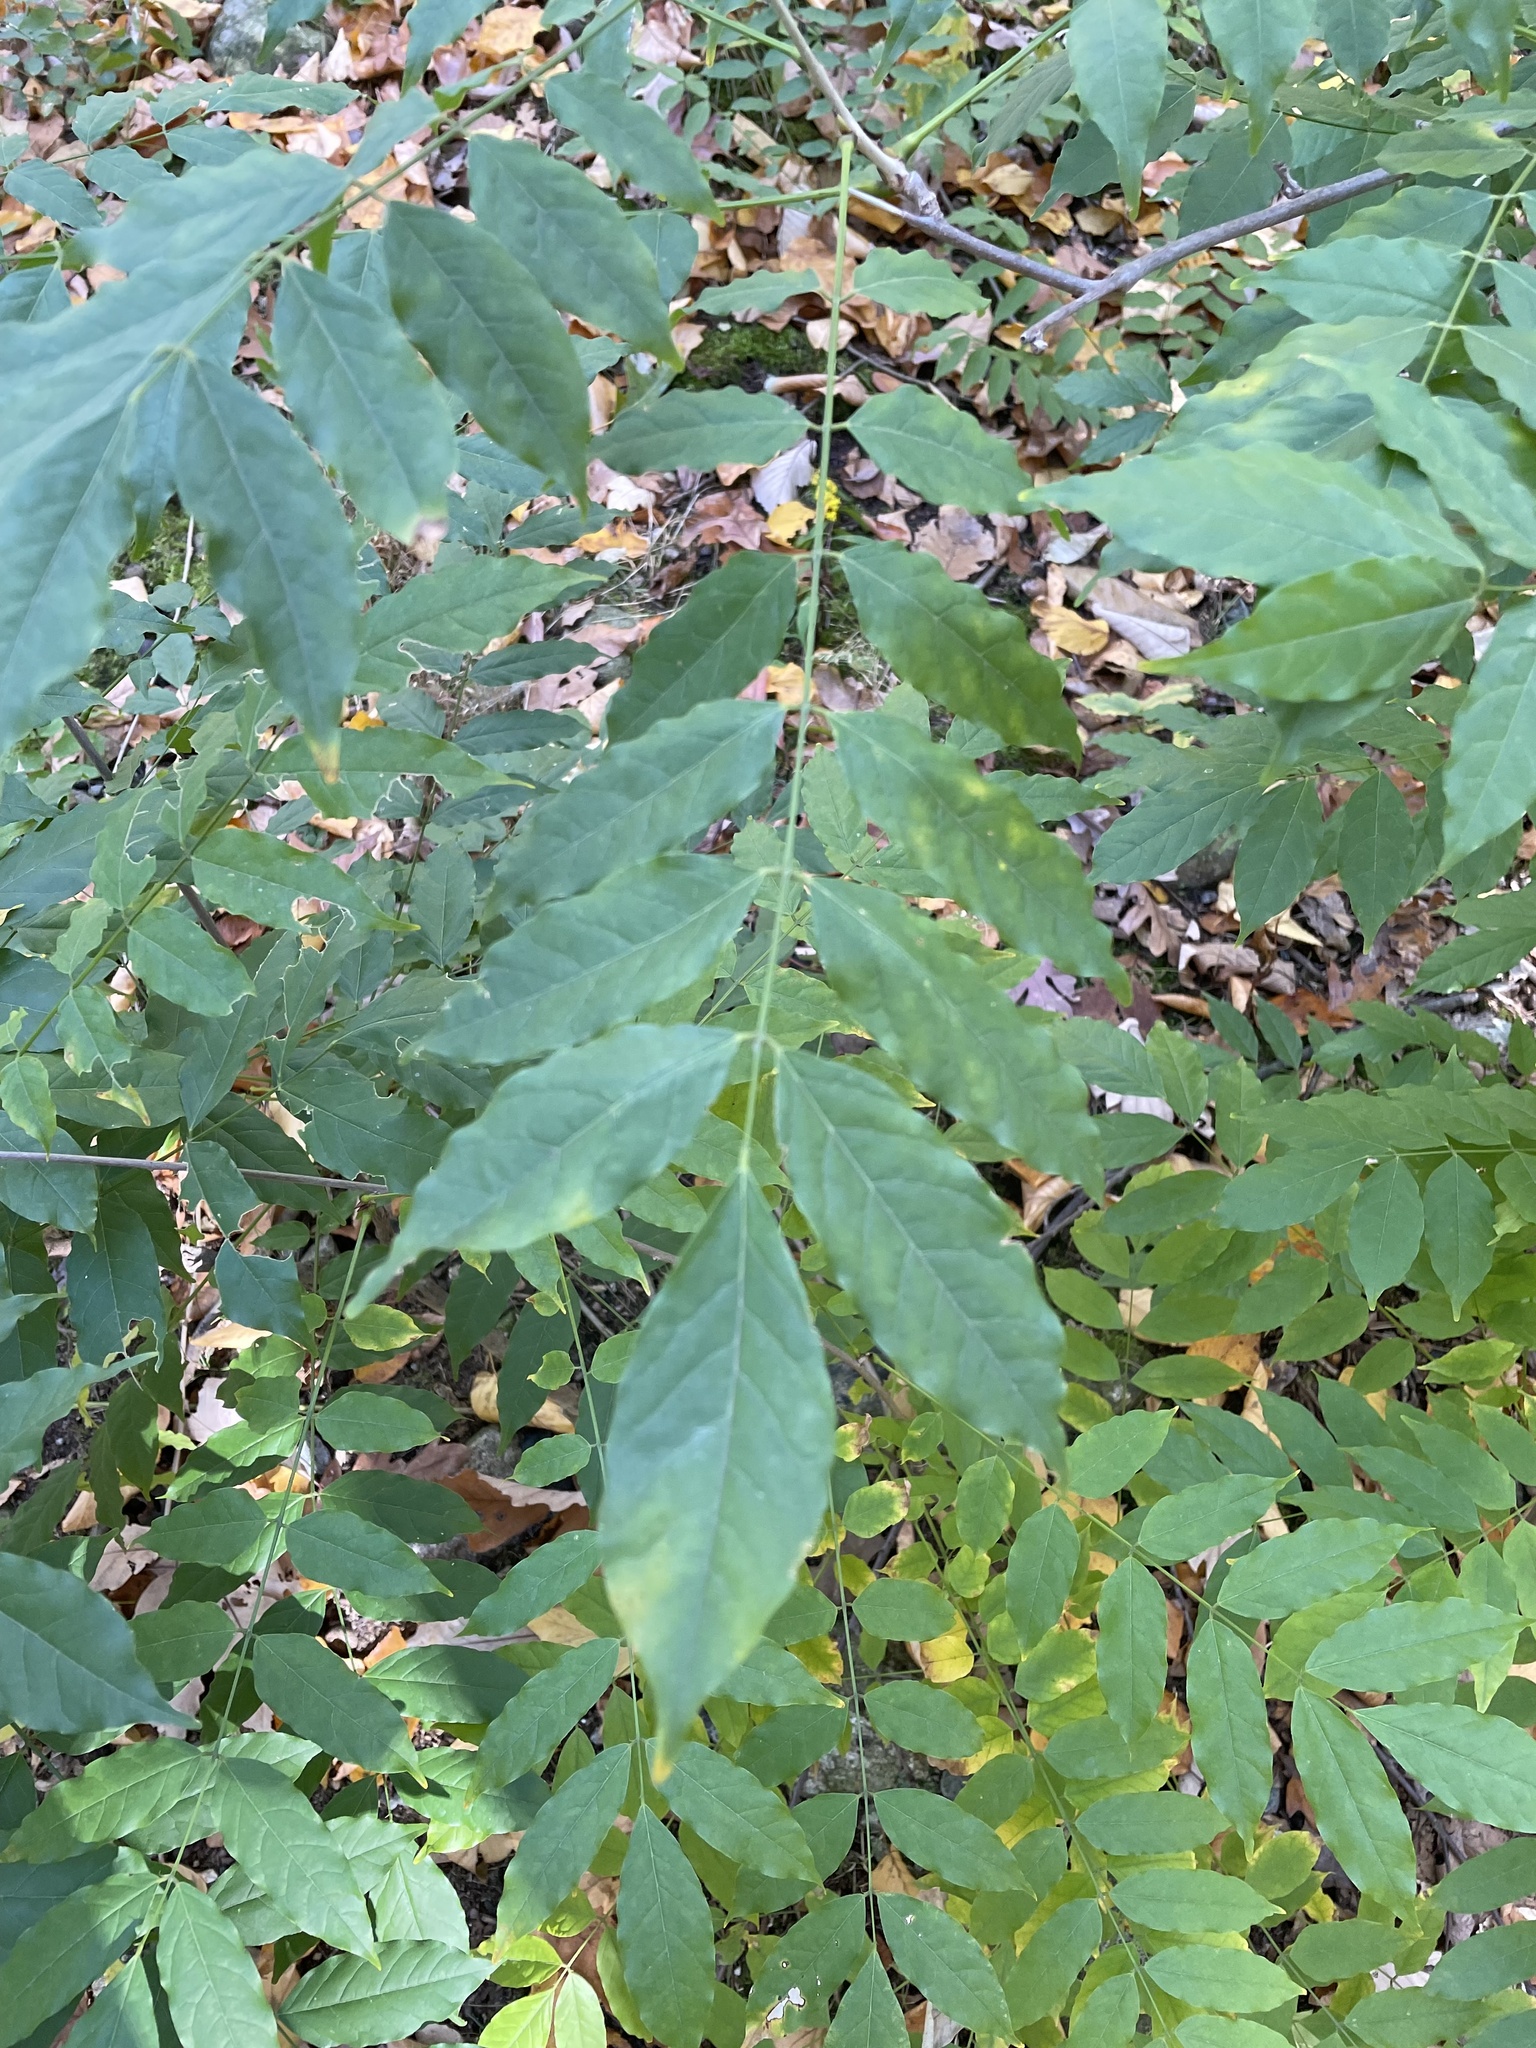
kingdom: Plantae
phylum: Tracheophyta
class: Magnoliopsida
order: Fabales
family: Fabaceae
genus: Wisteria
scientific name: Wisteria sinensis
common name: Chinese wisteria
